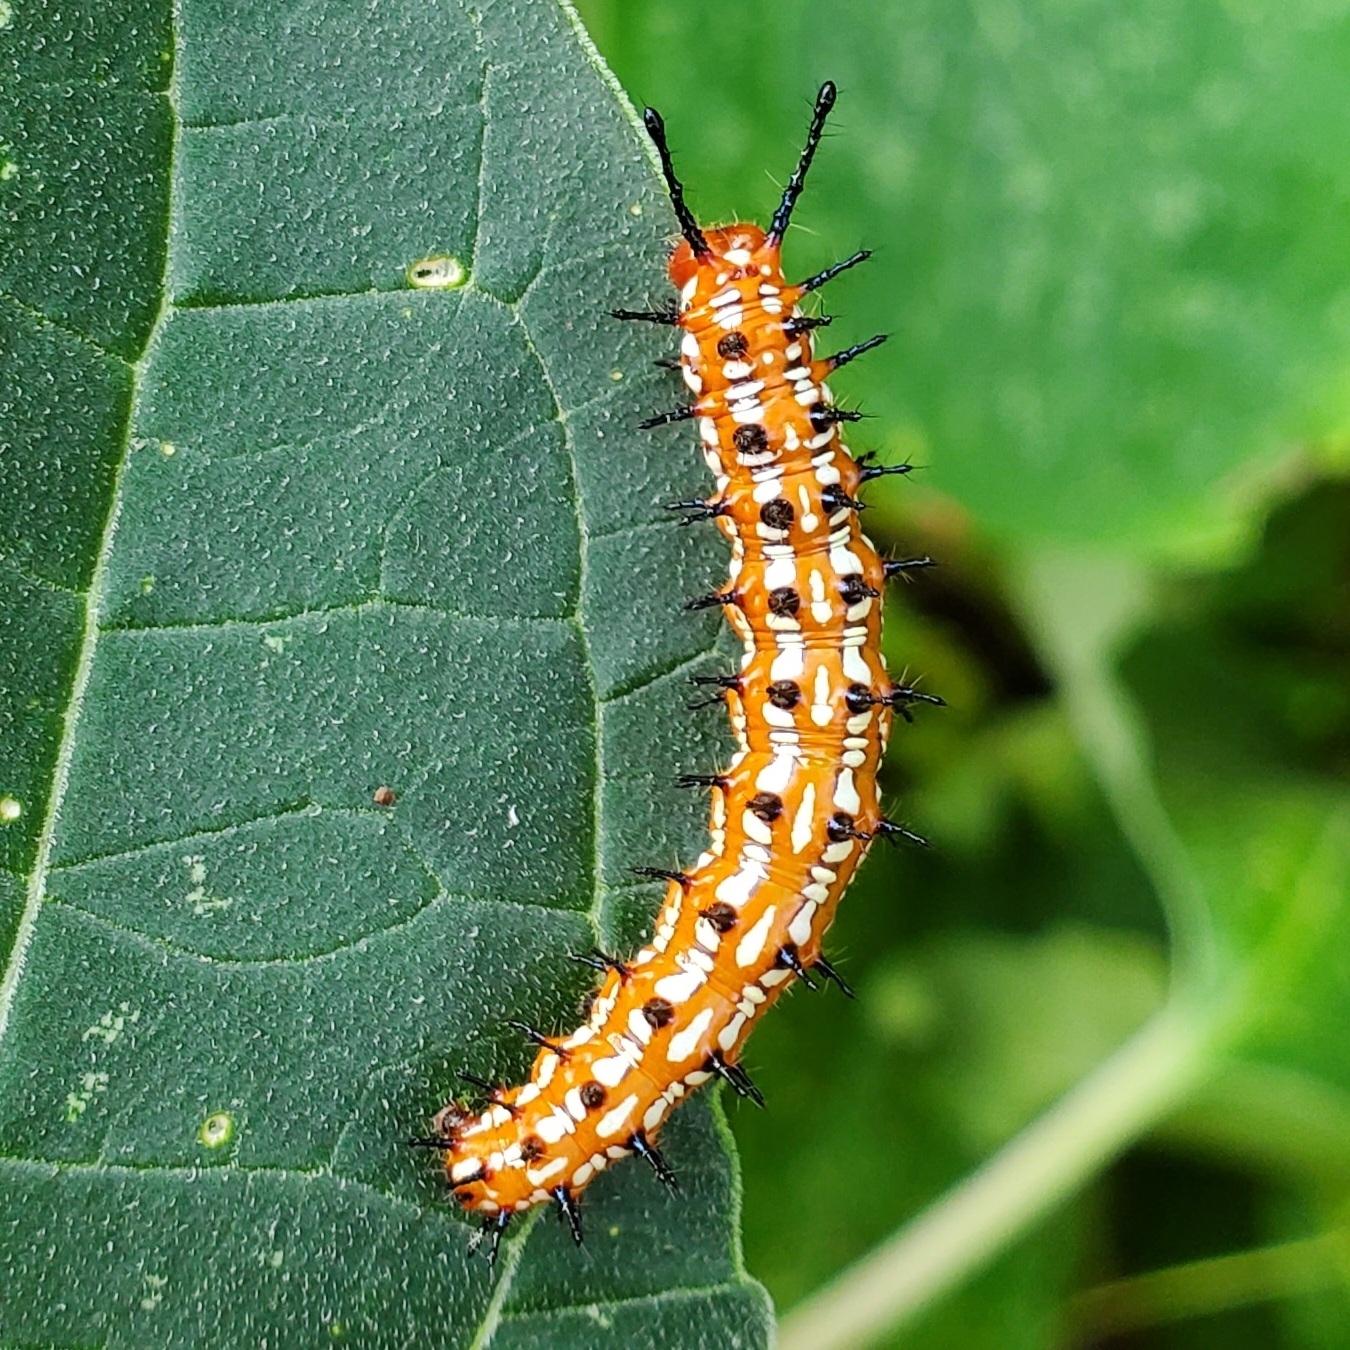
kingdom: Animalia
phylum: Arthropoda
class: Insecta
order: Lepidoptera
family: Nymphalidae
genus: Euptoieta
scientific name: Euptoieta claudia
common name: Variegated fritillary
